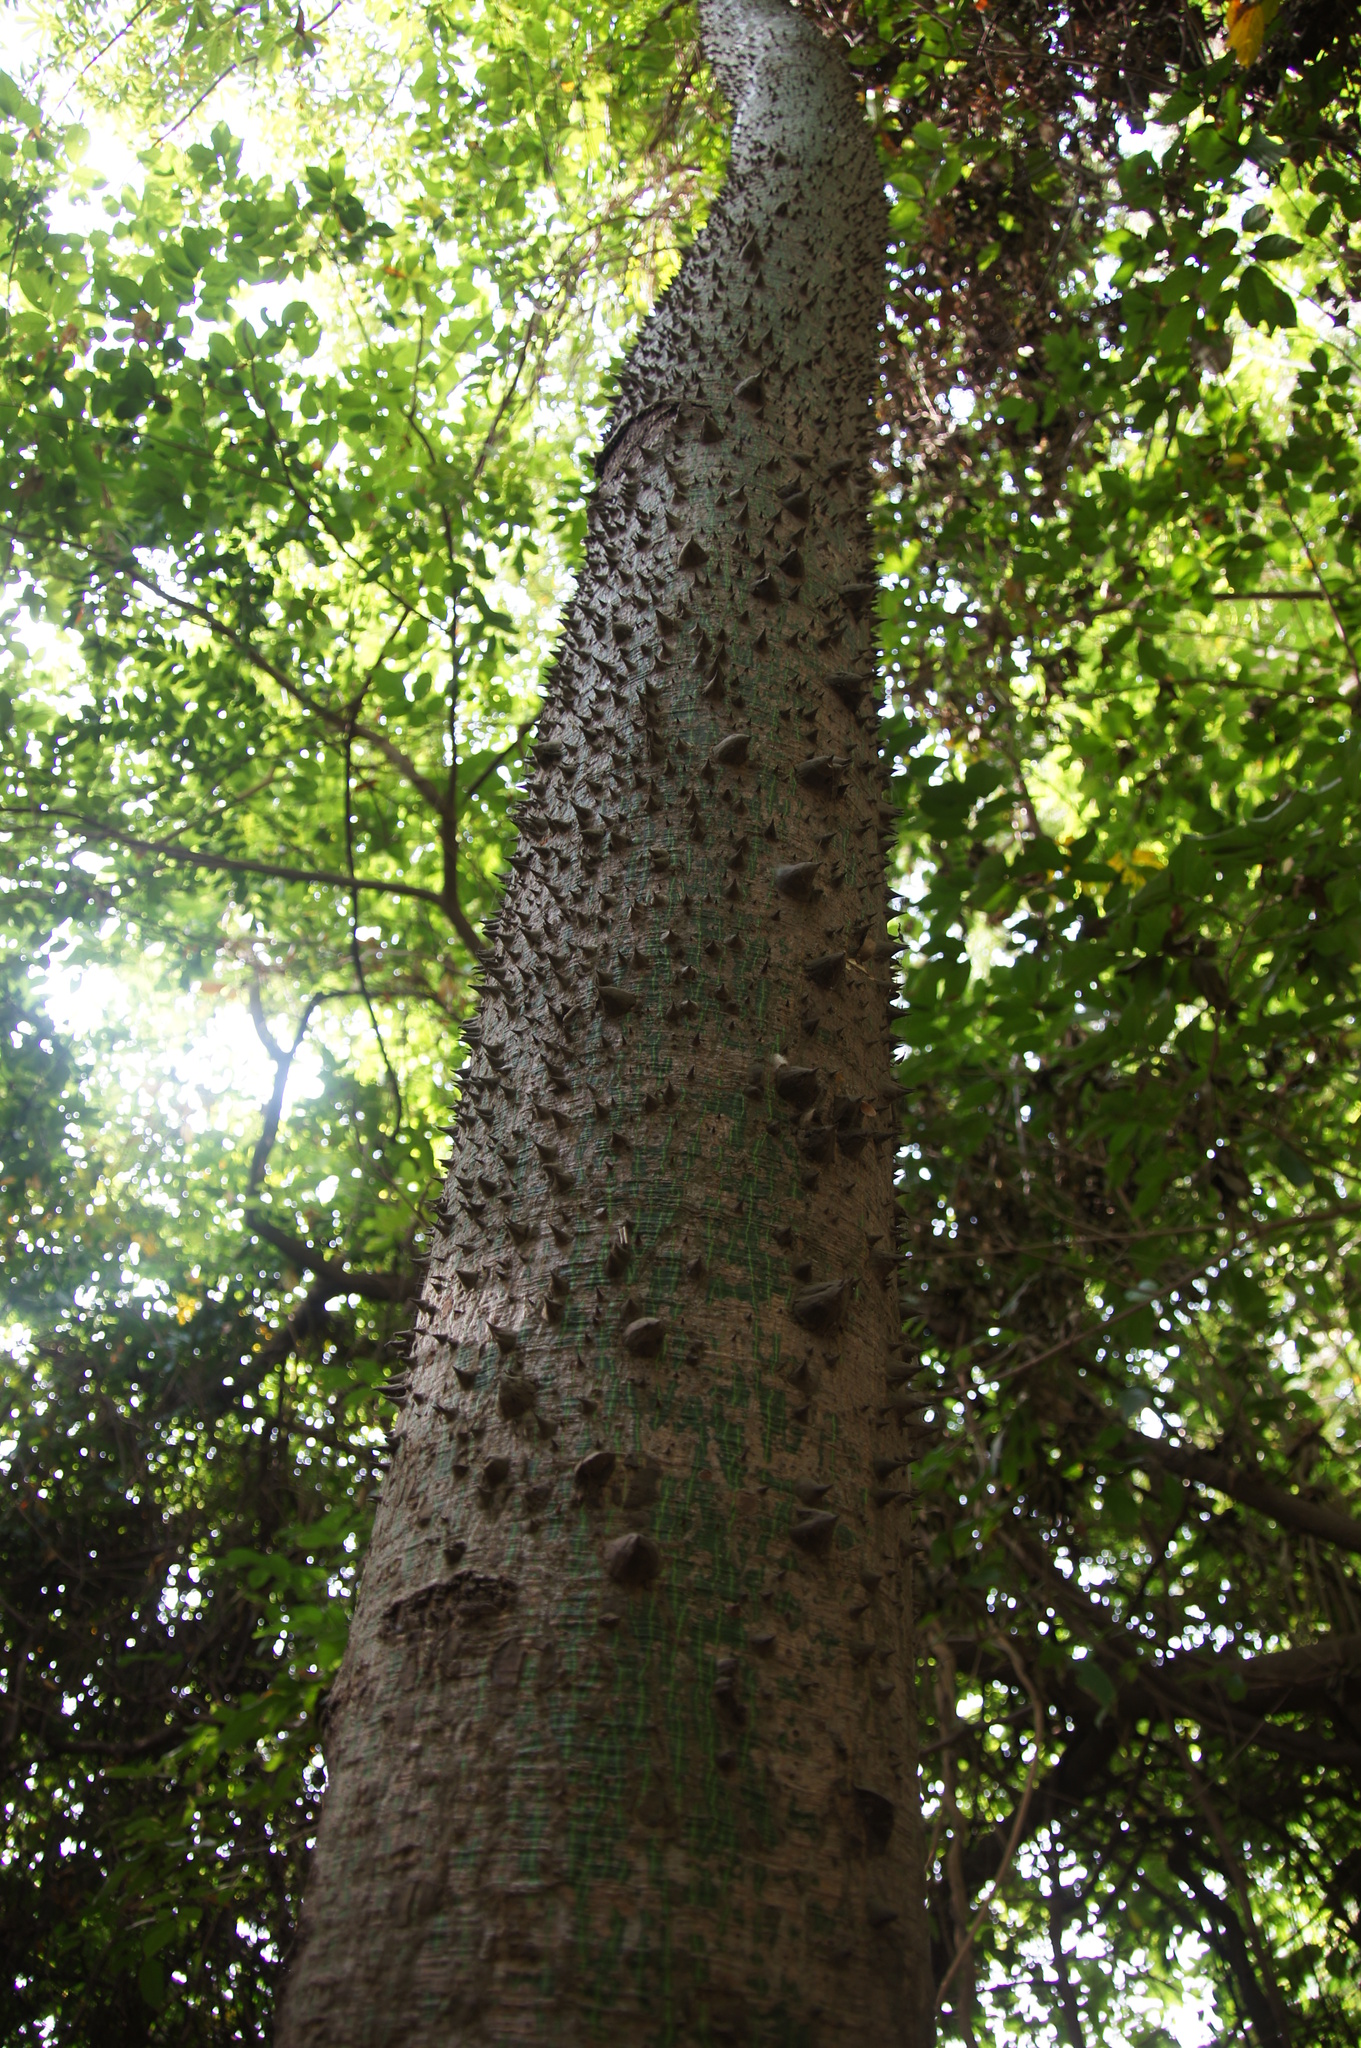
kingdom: Plantae
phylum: Tracheophyta
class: Magnoliopsida
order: Malvales
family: Malvaceae
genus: Ceiba
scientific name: Ceiba pentandra
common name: Kapok
